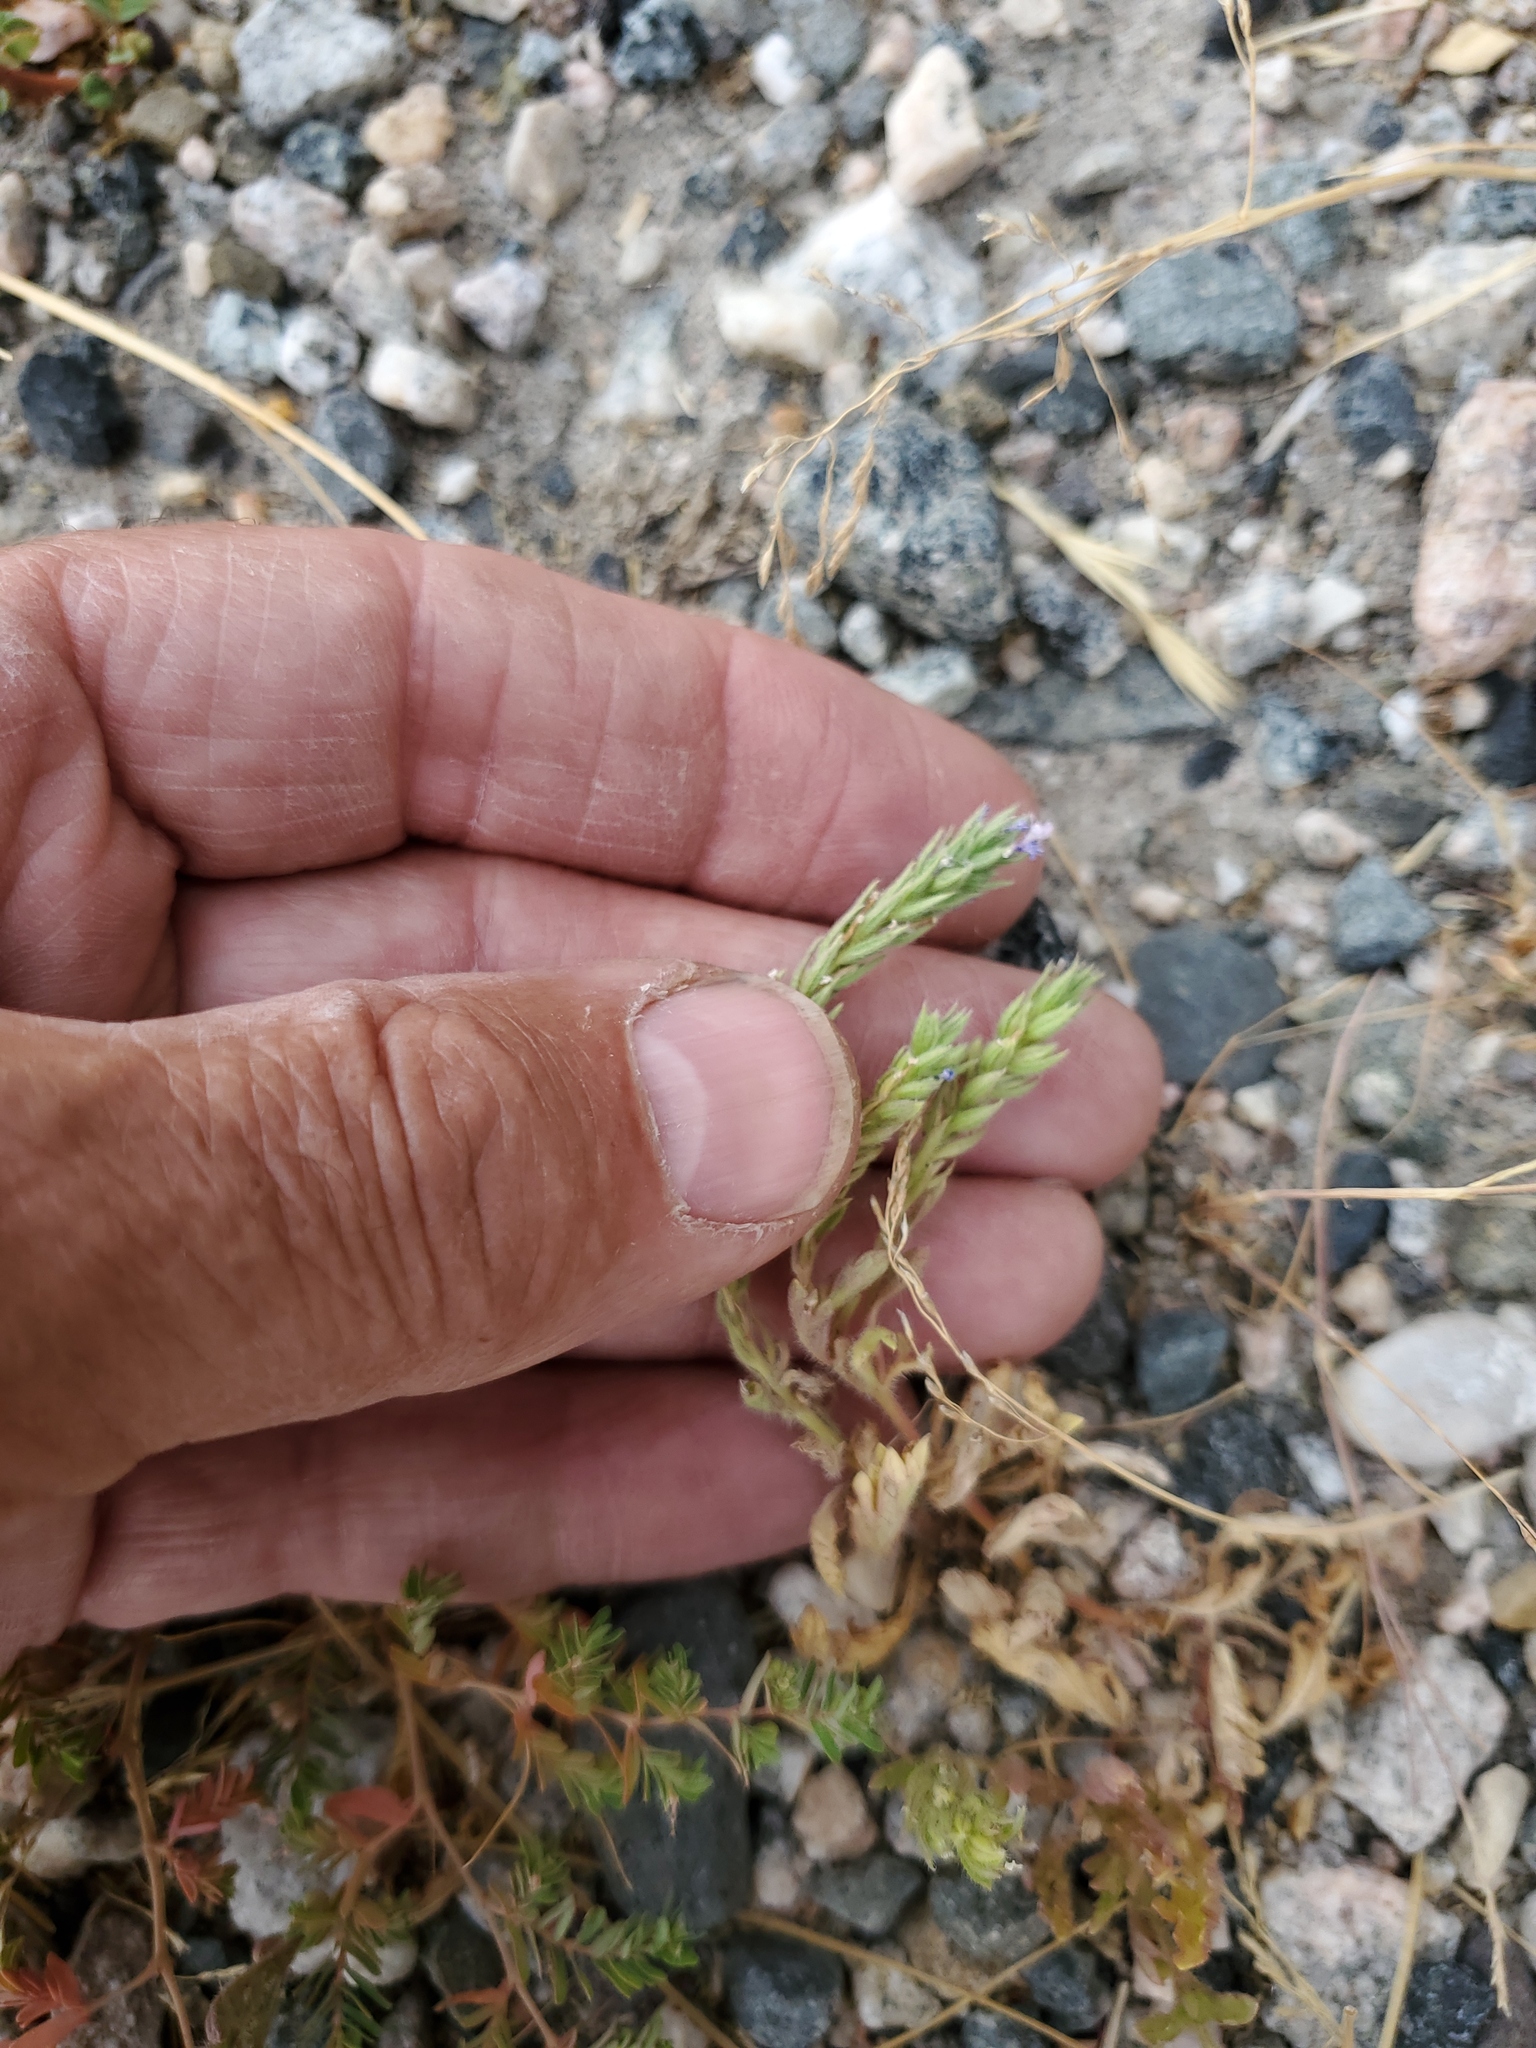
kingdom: Plantae
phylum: Tracheophyta
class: Magnoliopsida
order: Malpighiales
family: Euphorbiaceae
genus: Euphorbia
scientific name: Euphorbia glyptosperma
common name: Corrugate-seeded spurge
